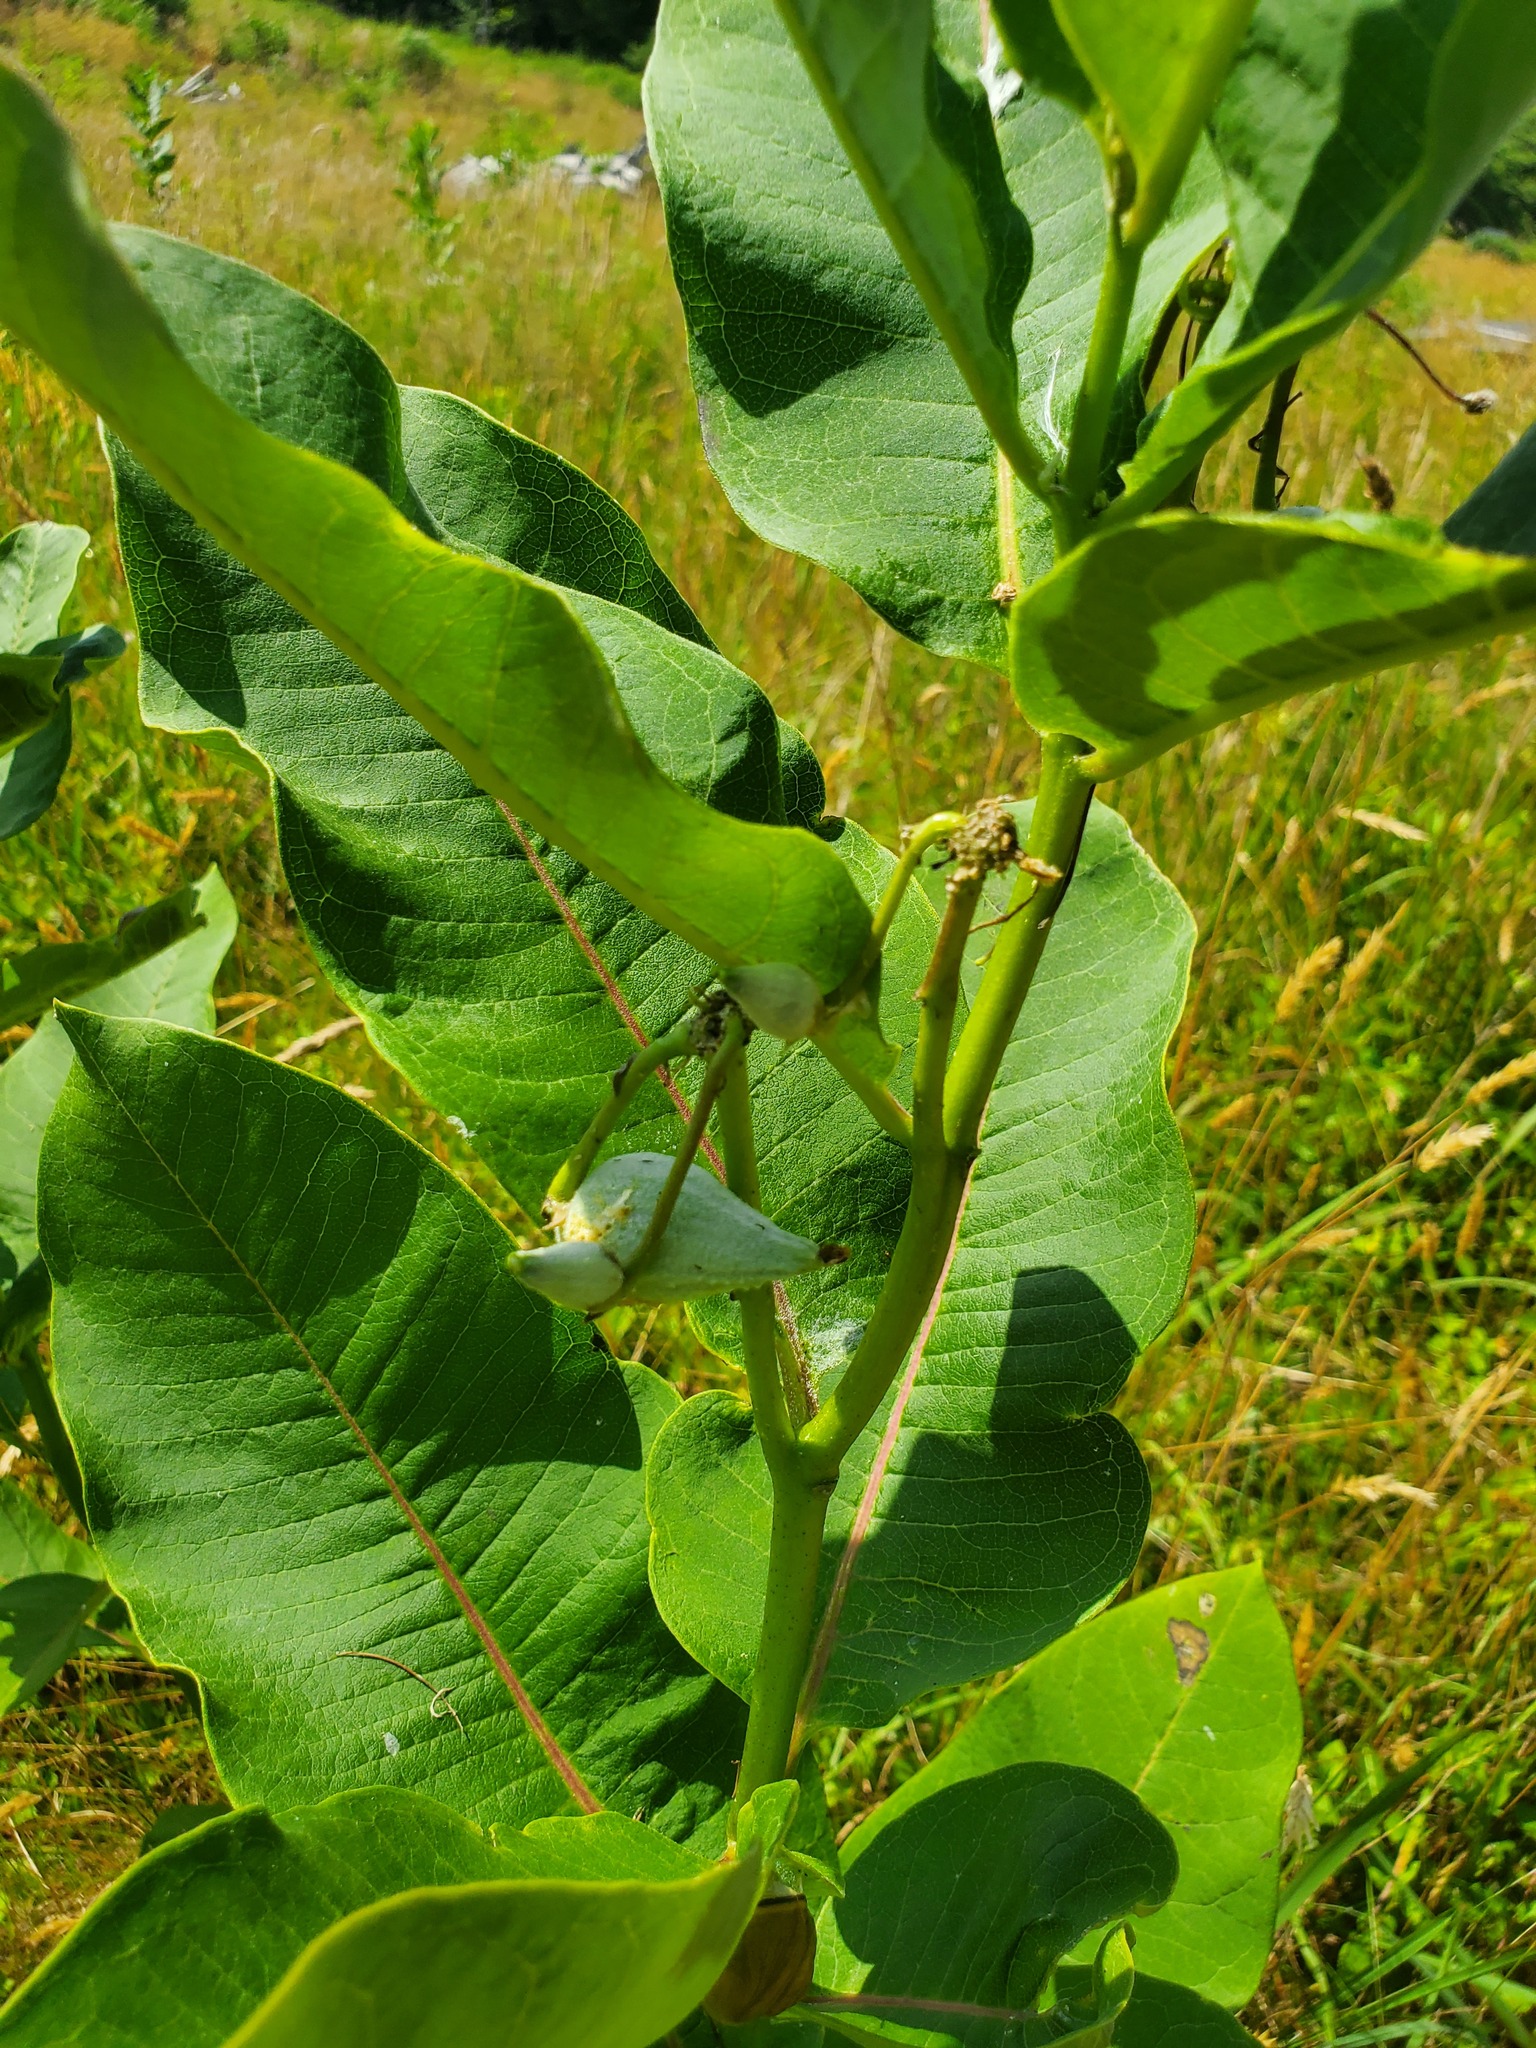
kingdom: Plantae
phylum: Tracheophyta
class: Magnoliopsida
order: Gentianales
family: Apocynaceae
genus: Asclepias
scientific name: Asclepias syriaca
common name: Common milkweed
